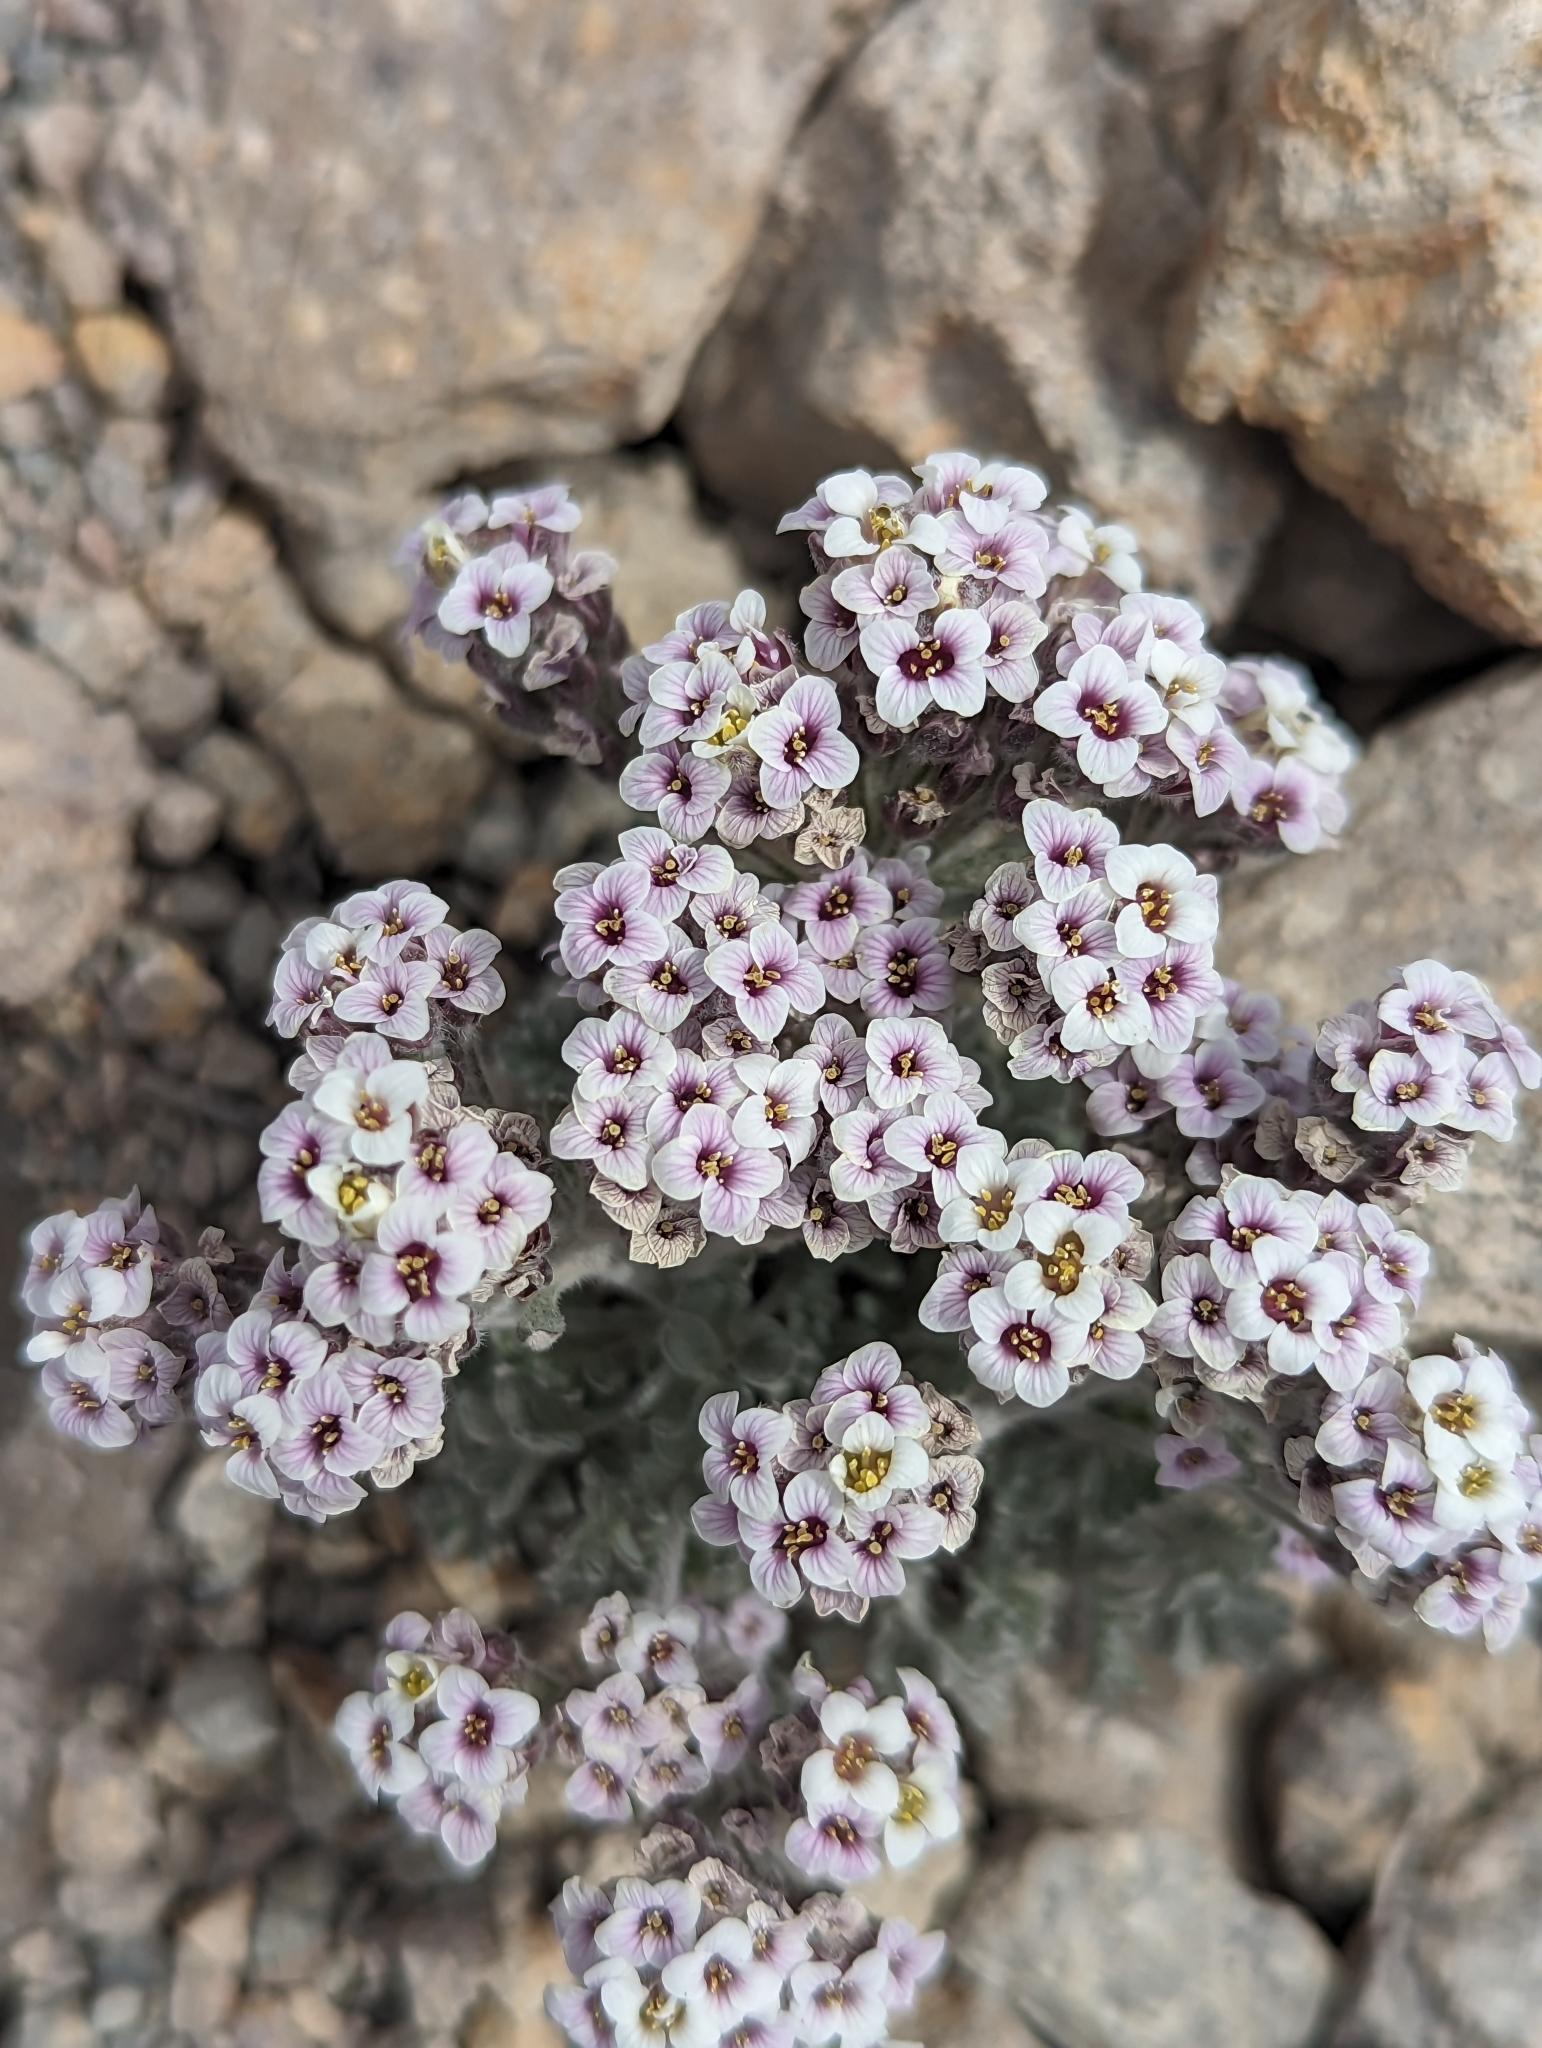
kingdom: Plantae
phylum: Tracheophyta
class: Magnoliopsida
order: Brassicales
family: Brassicaceae
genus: Smelowskia
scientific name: Smelowskia ovalis
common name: Alpine false candytuft
